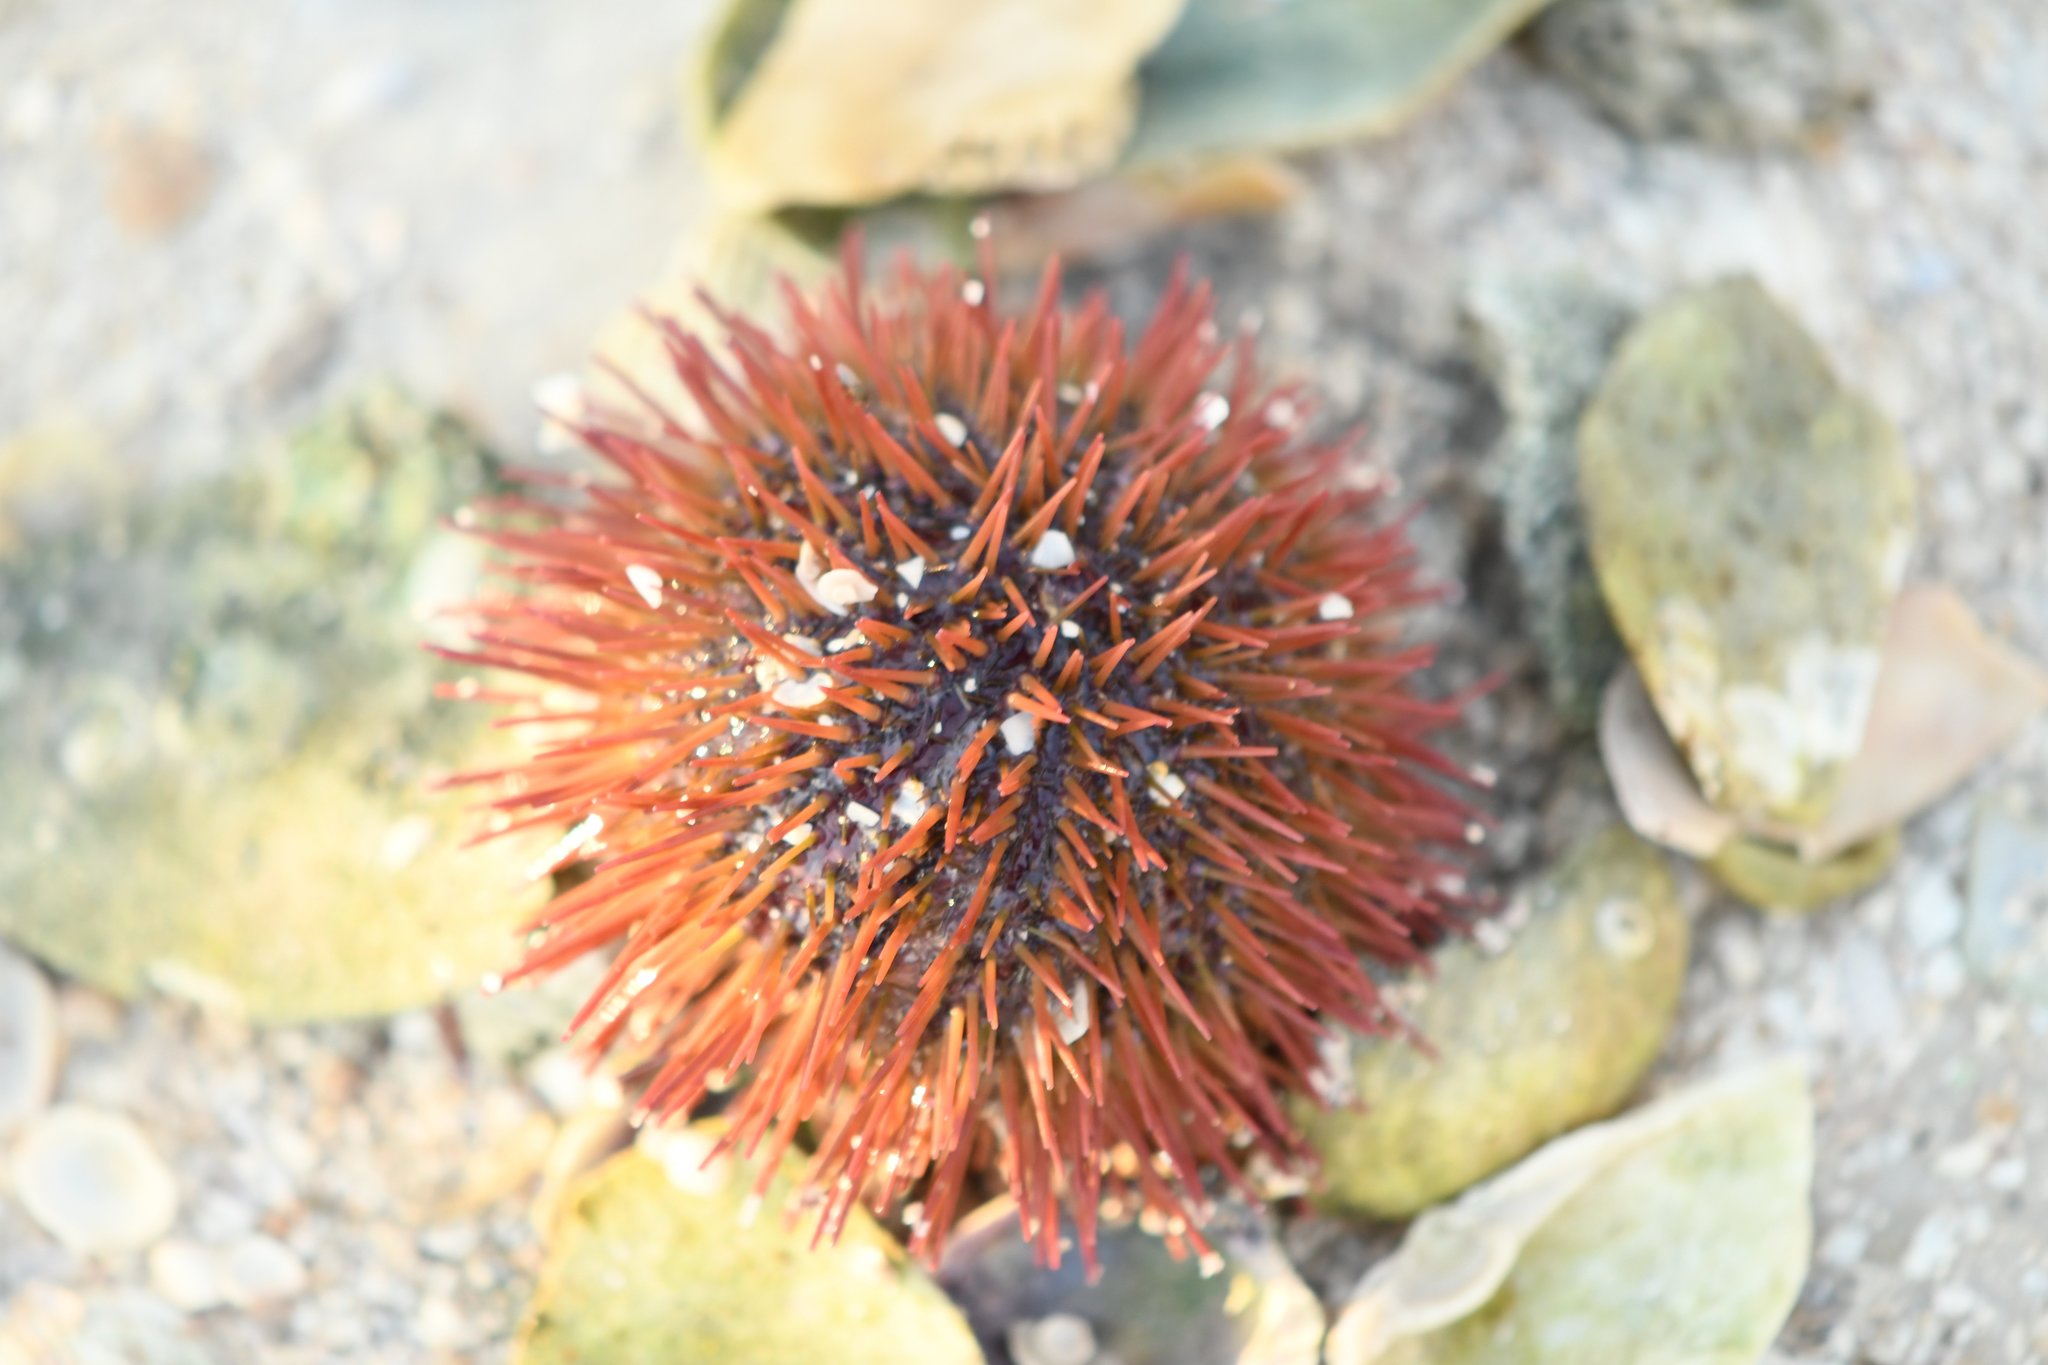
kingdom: Animalia
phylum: Echinodermata
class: Echinoidea
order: Camarodonta
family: Toxopneustidae
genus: Lytechinus
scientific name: Lytechinus variegatus
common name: Variegated urchin
